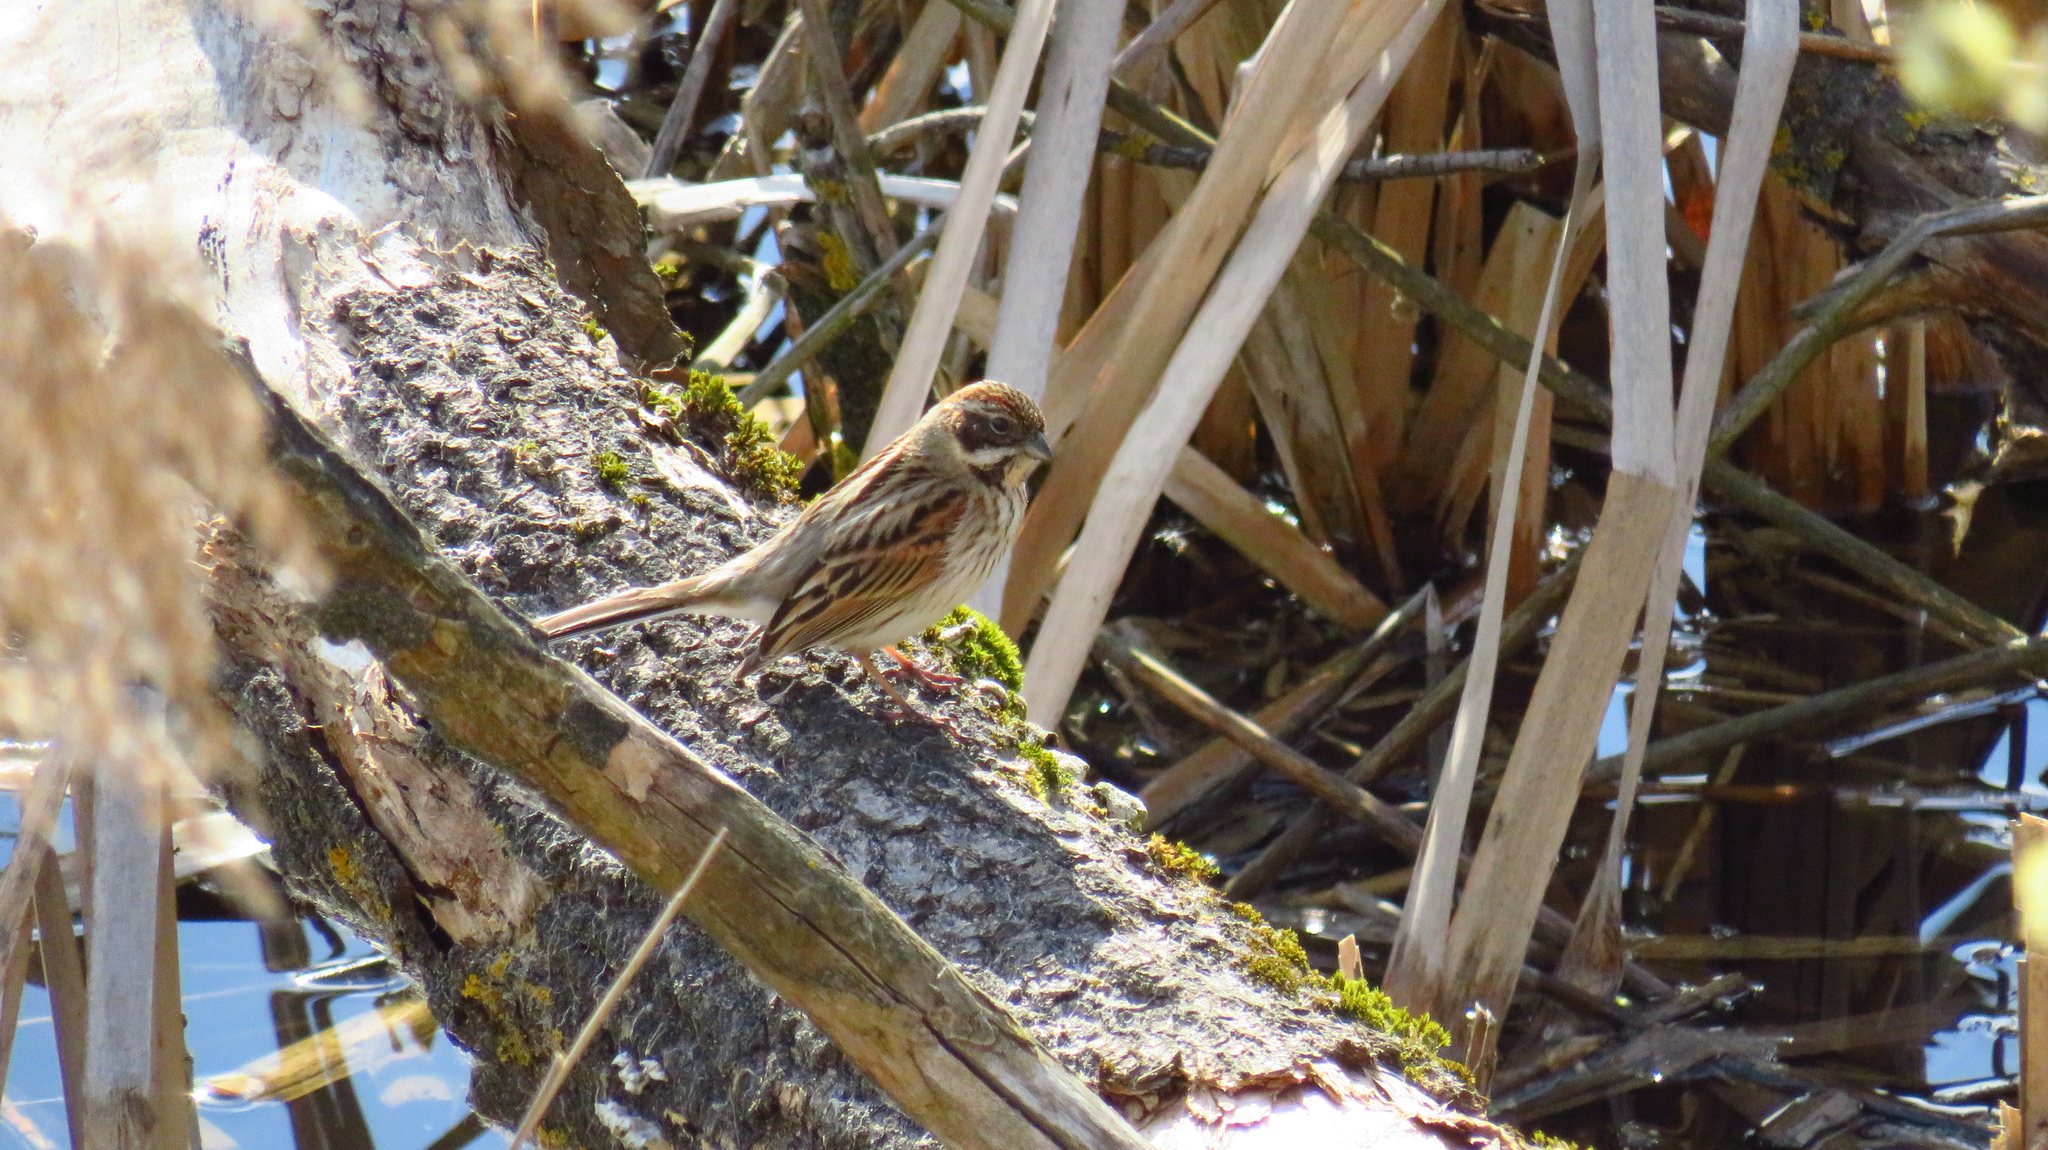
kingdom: Animalia
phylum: Chordata
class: Aves
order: Passeriformes
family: Emberizidae
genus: Emberiza
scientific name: Emberiza schoeniclus
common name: Reed bunting
